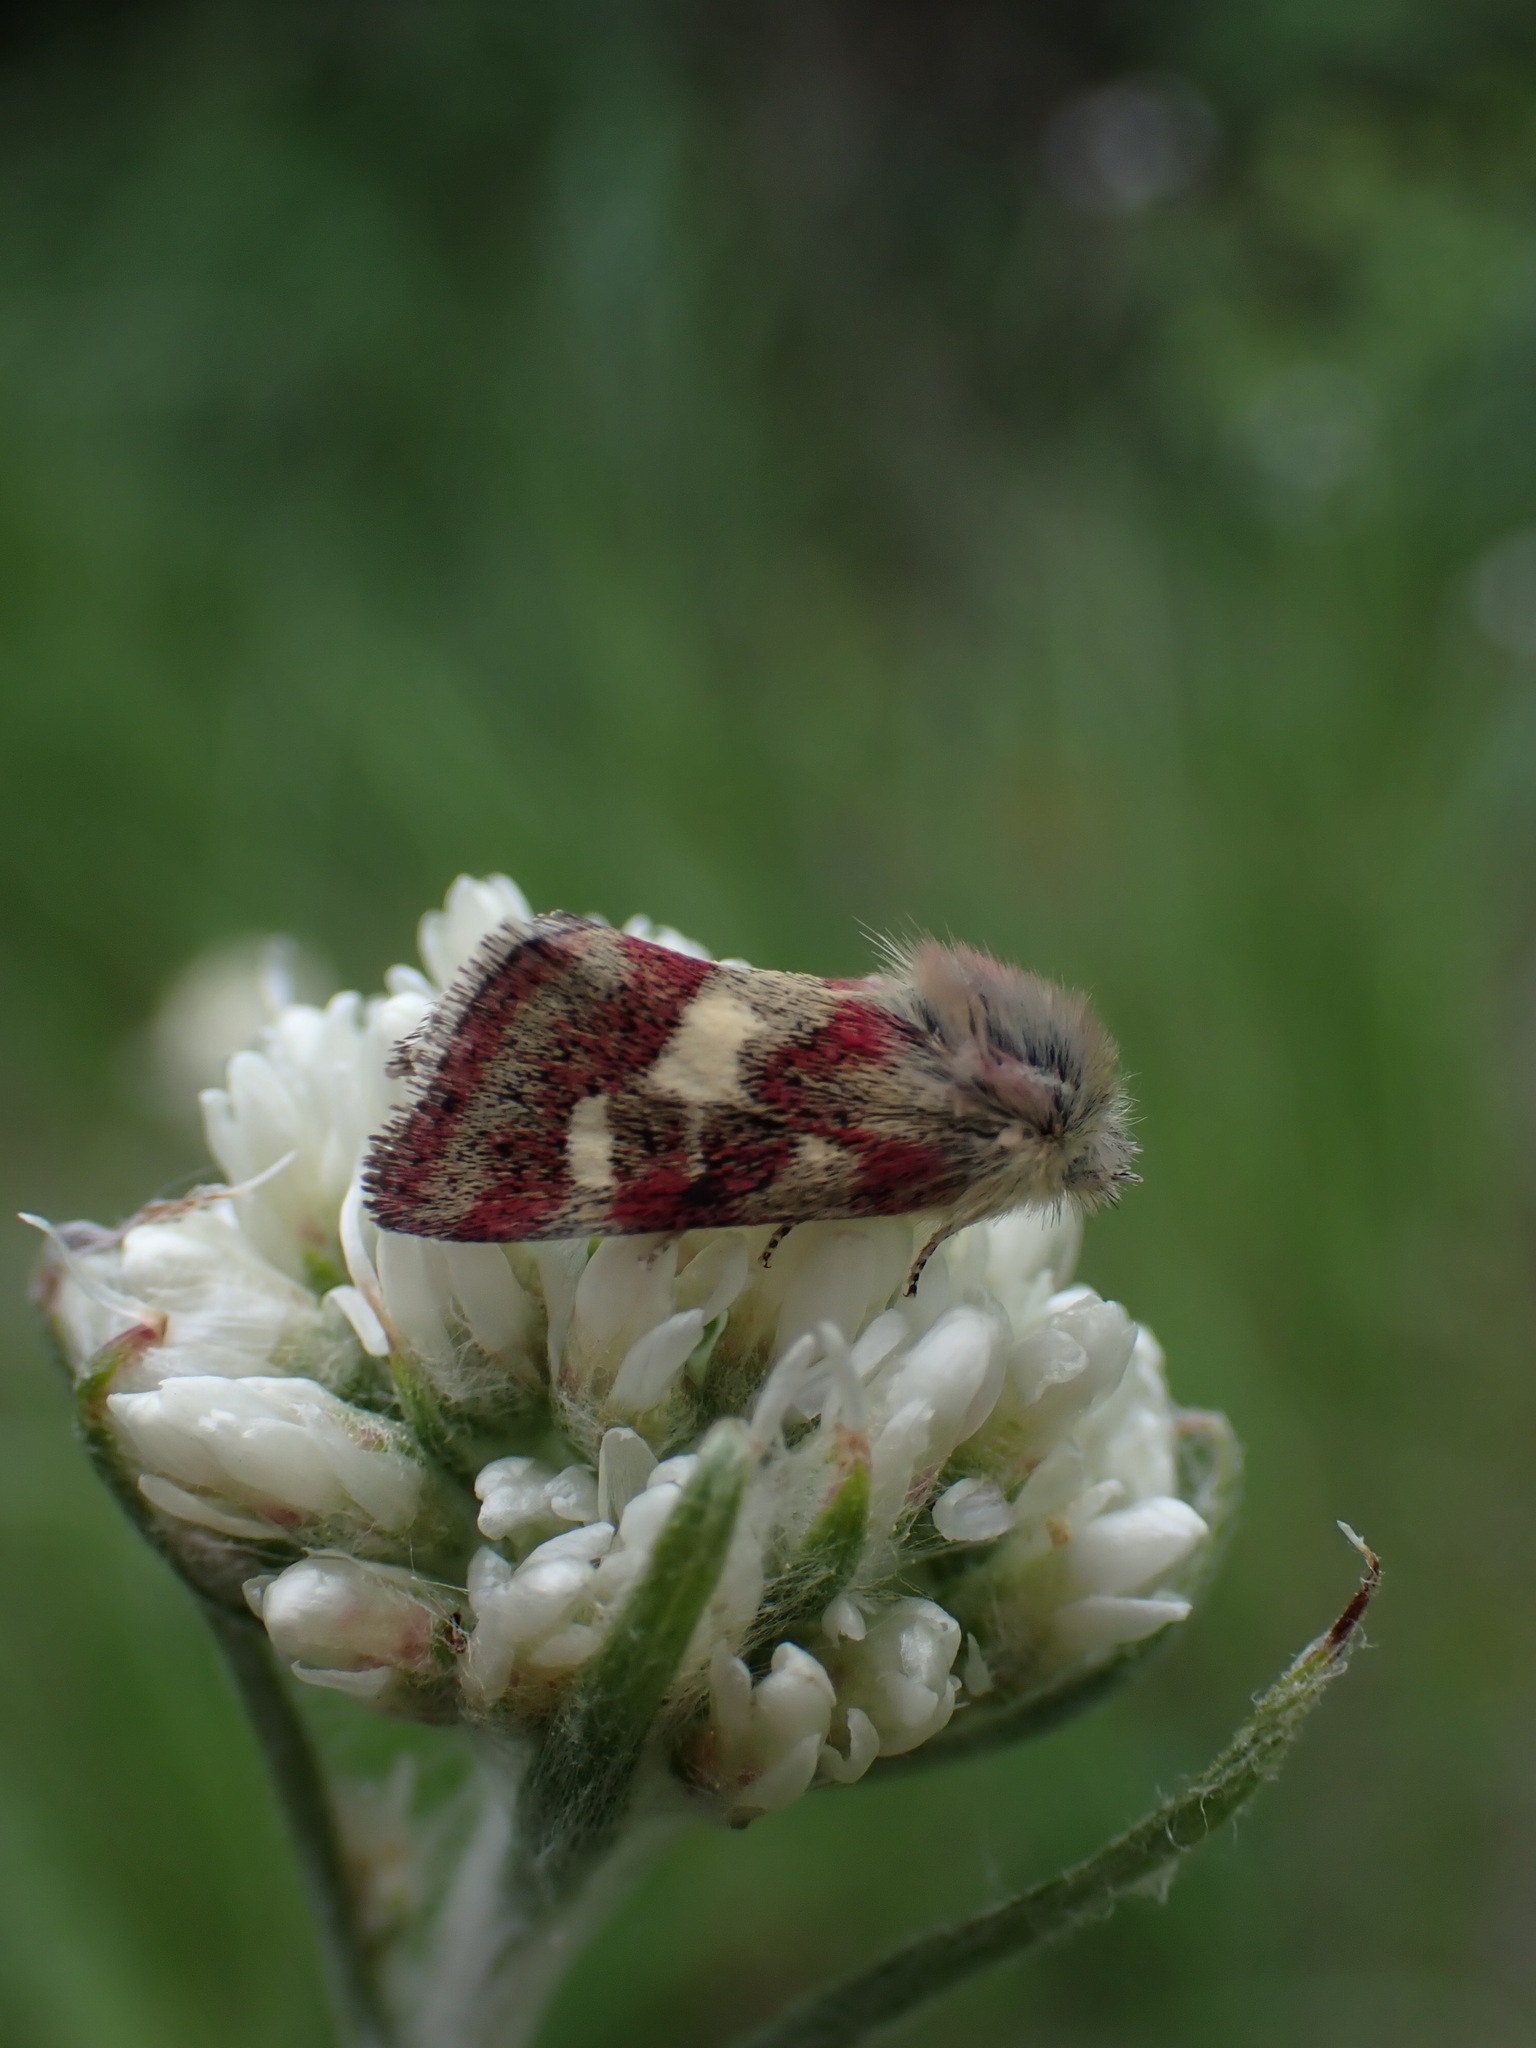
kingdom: Animalia
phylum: Arthropoda
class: Insecta
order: Lepidoptera
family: Noctuidae
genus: Eutricopis
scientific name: Eutricopis nexilis
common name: White-spotted midget moth
